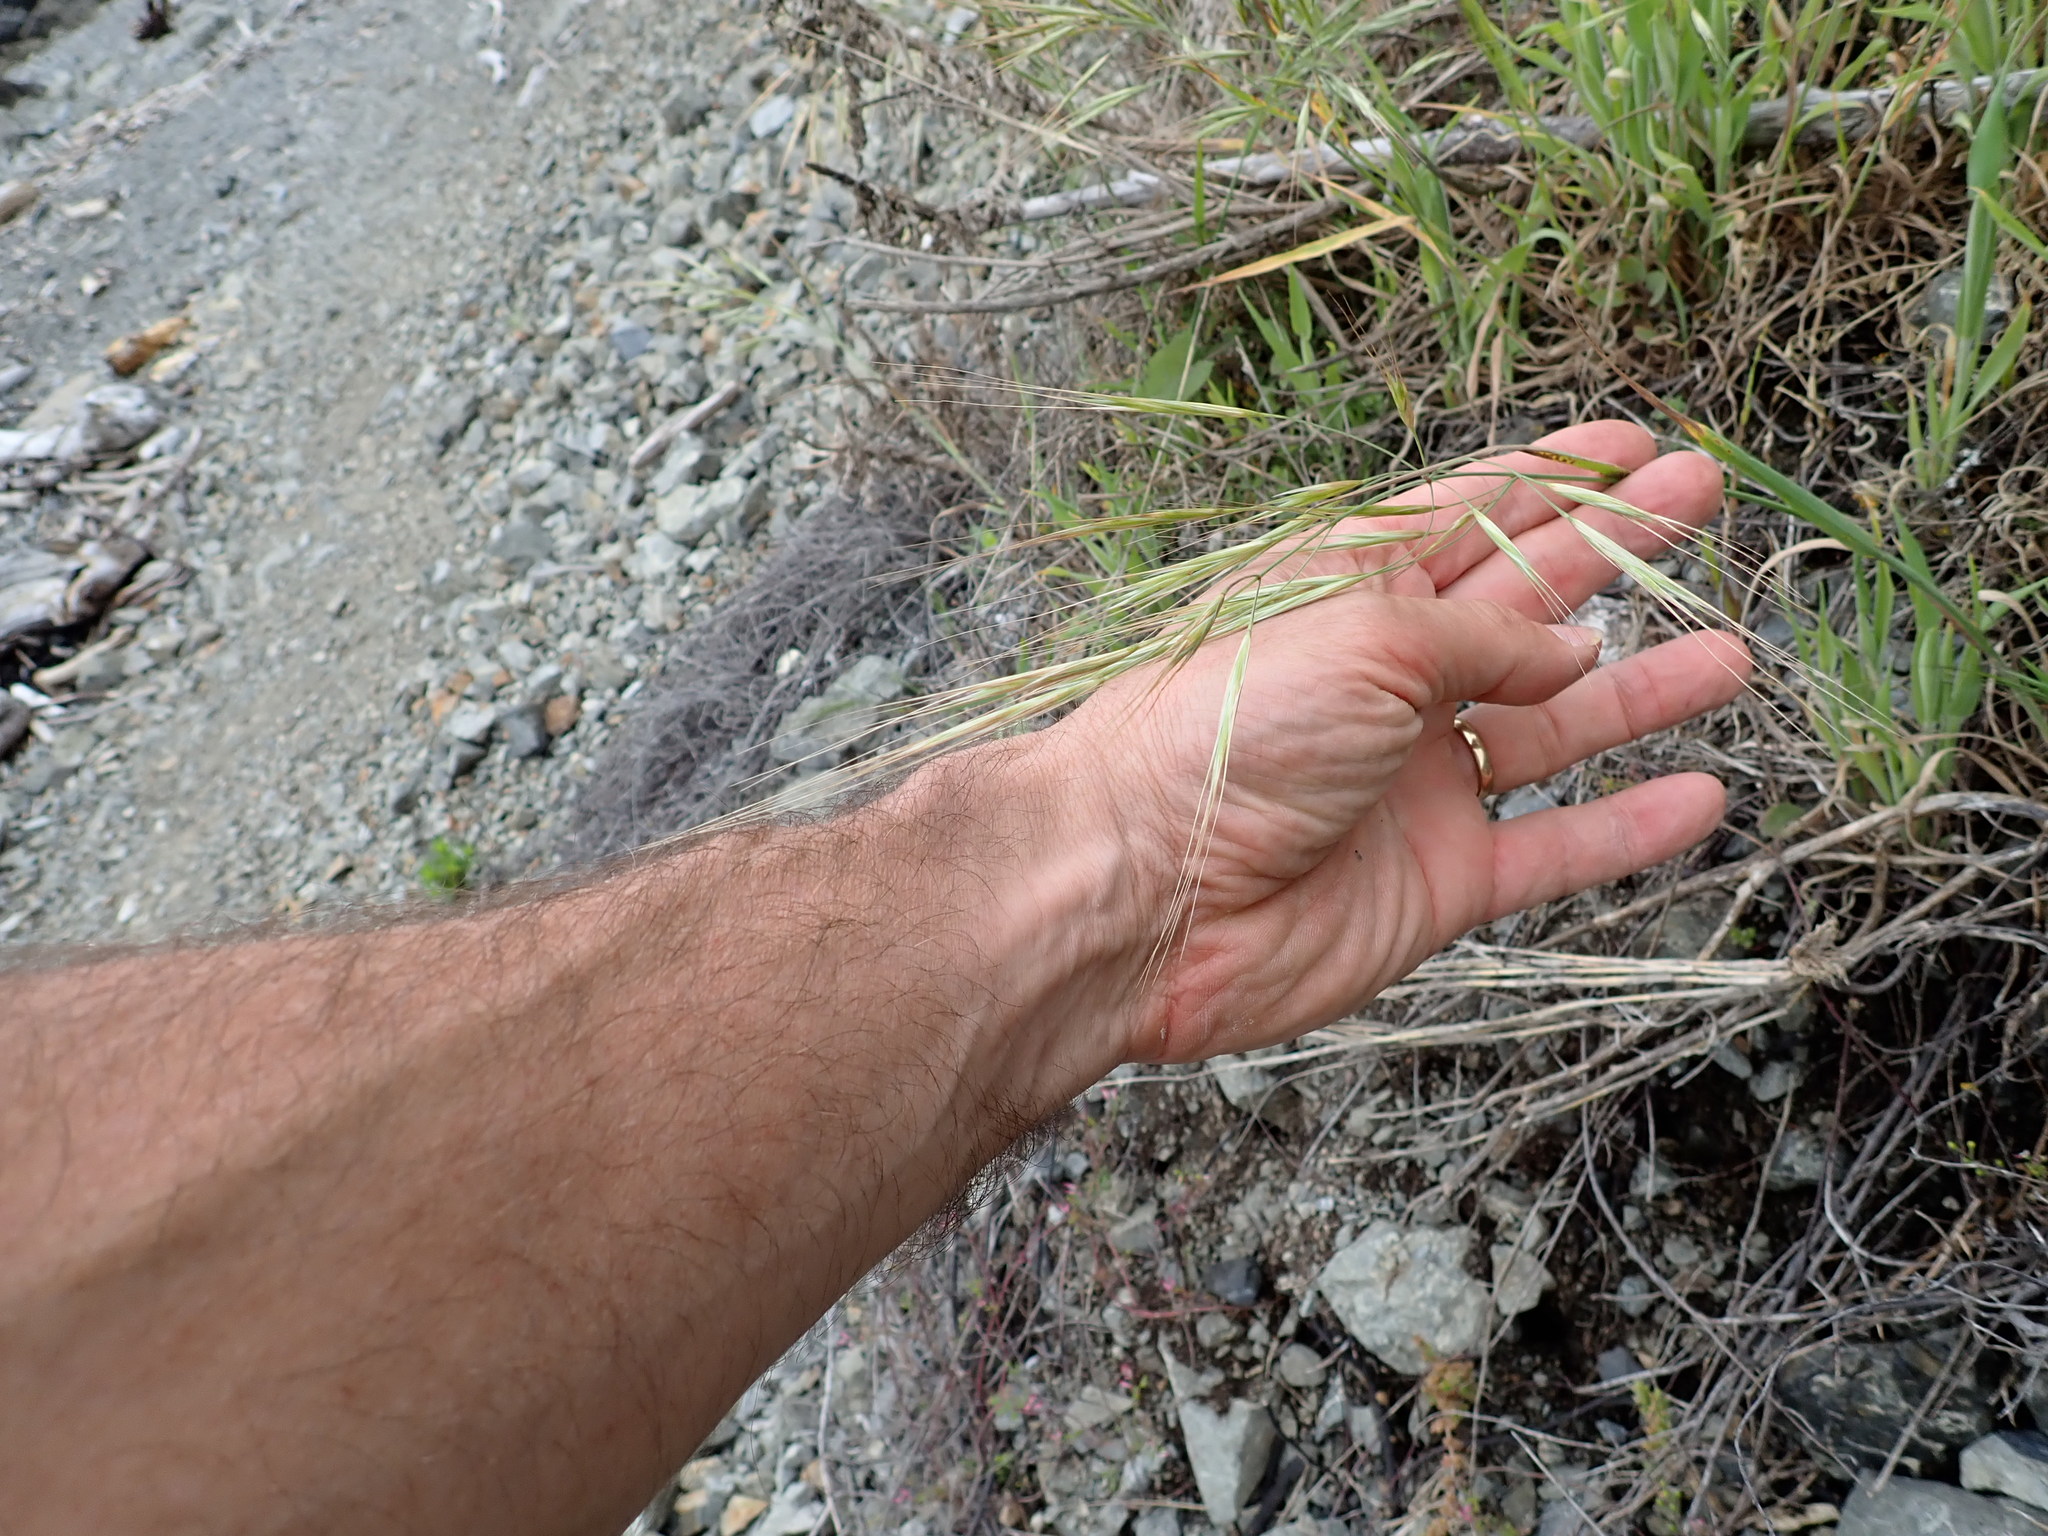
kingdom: Plantae
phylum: Tracheophyta
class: Liliopsida
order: Poales
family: Poaceae
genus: Bromus
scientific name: Bromus diandrus
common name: Ripgut brome
